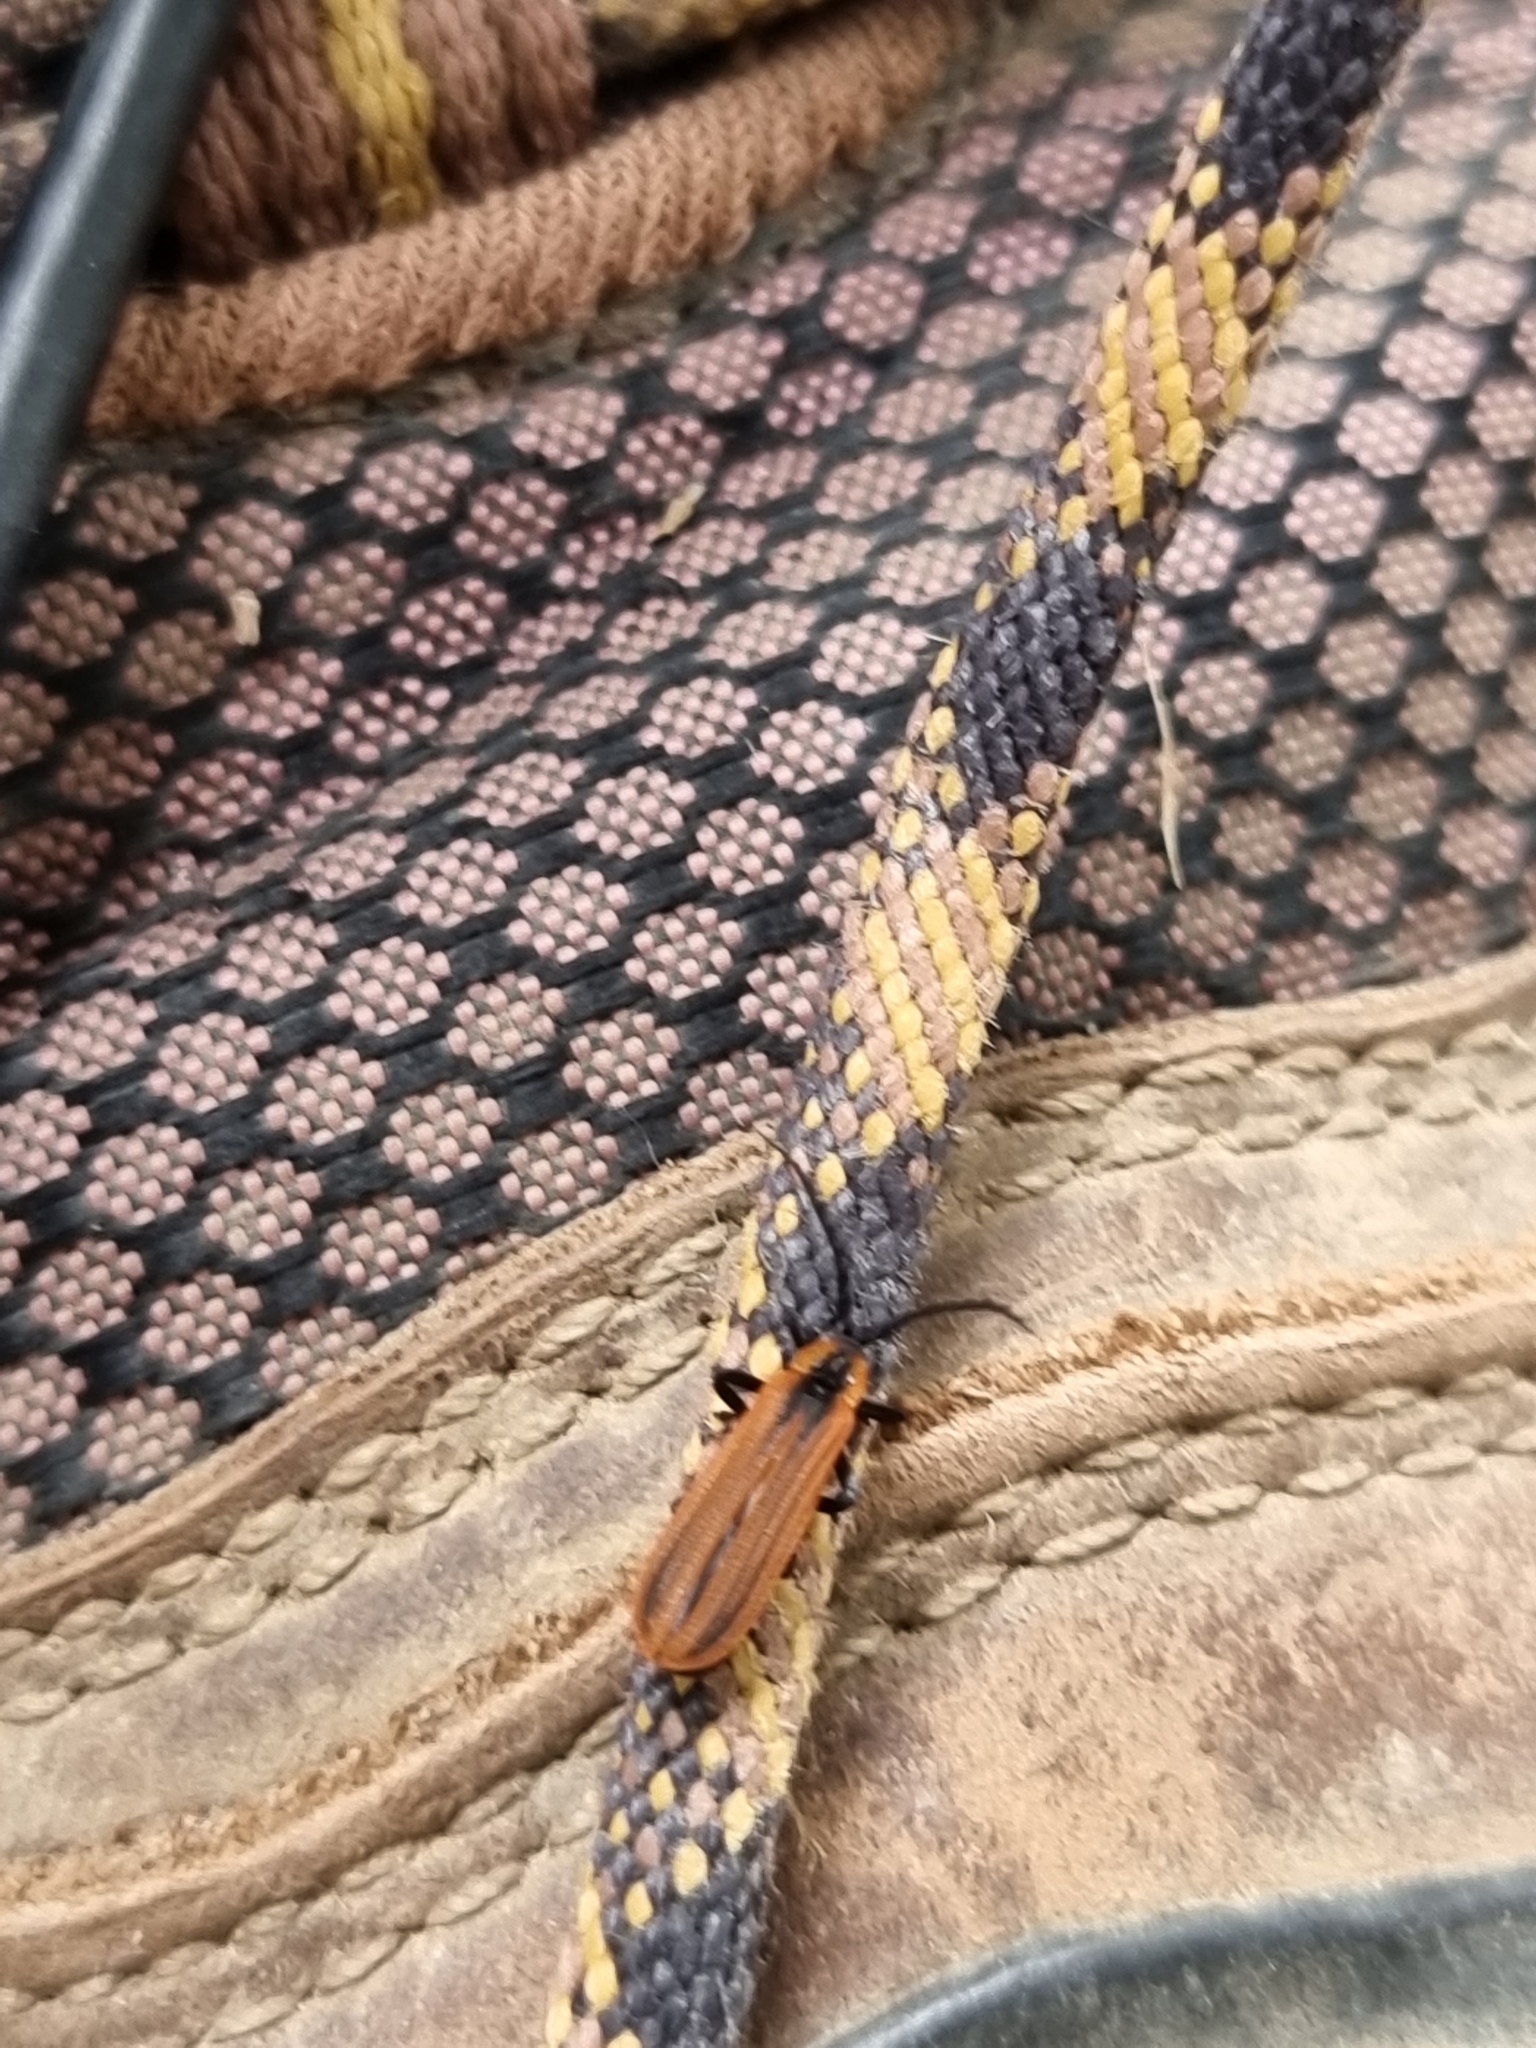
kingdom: Animalia
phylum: Arthropoda
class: Insecta
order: Coleoptera
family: Lycidae
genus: Trichalus
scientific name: Trichalus
